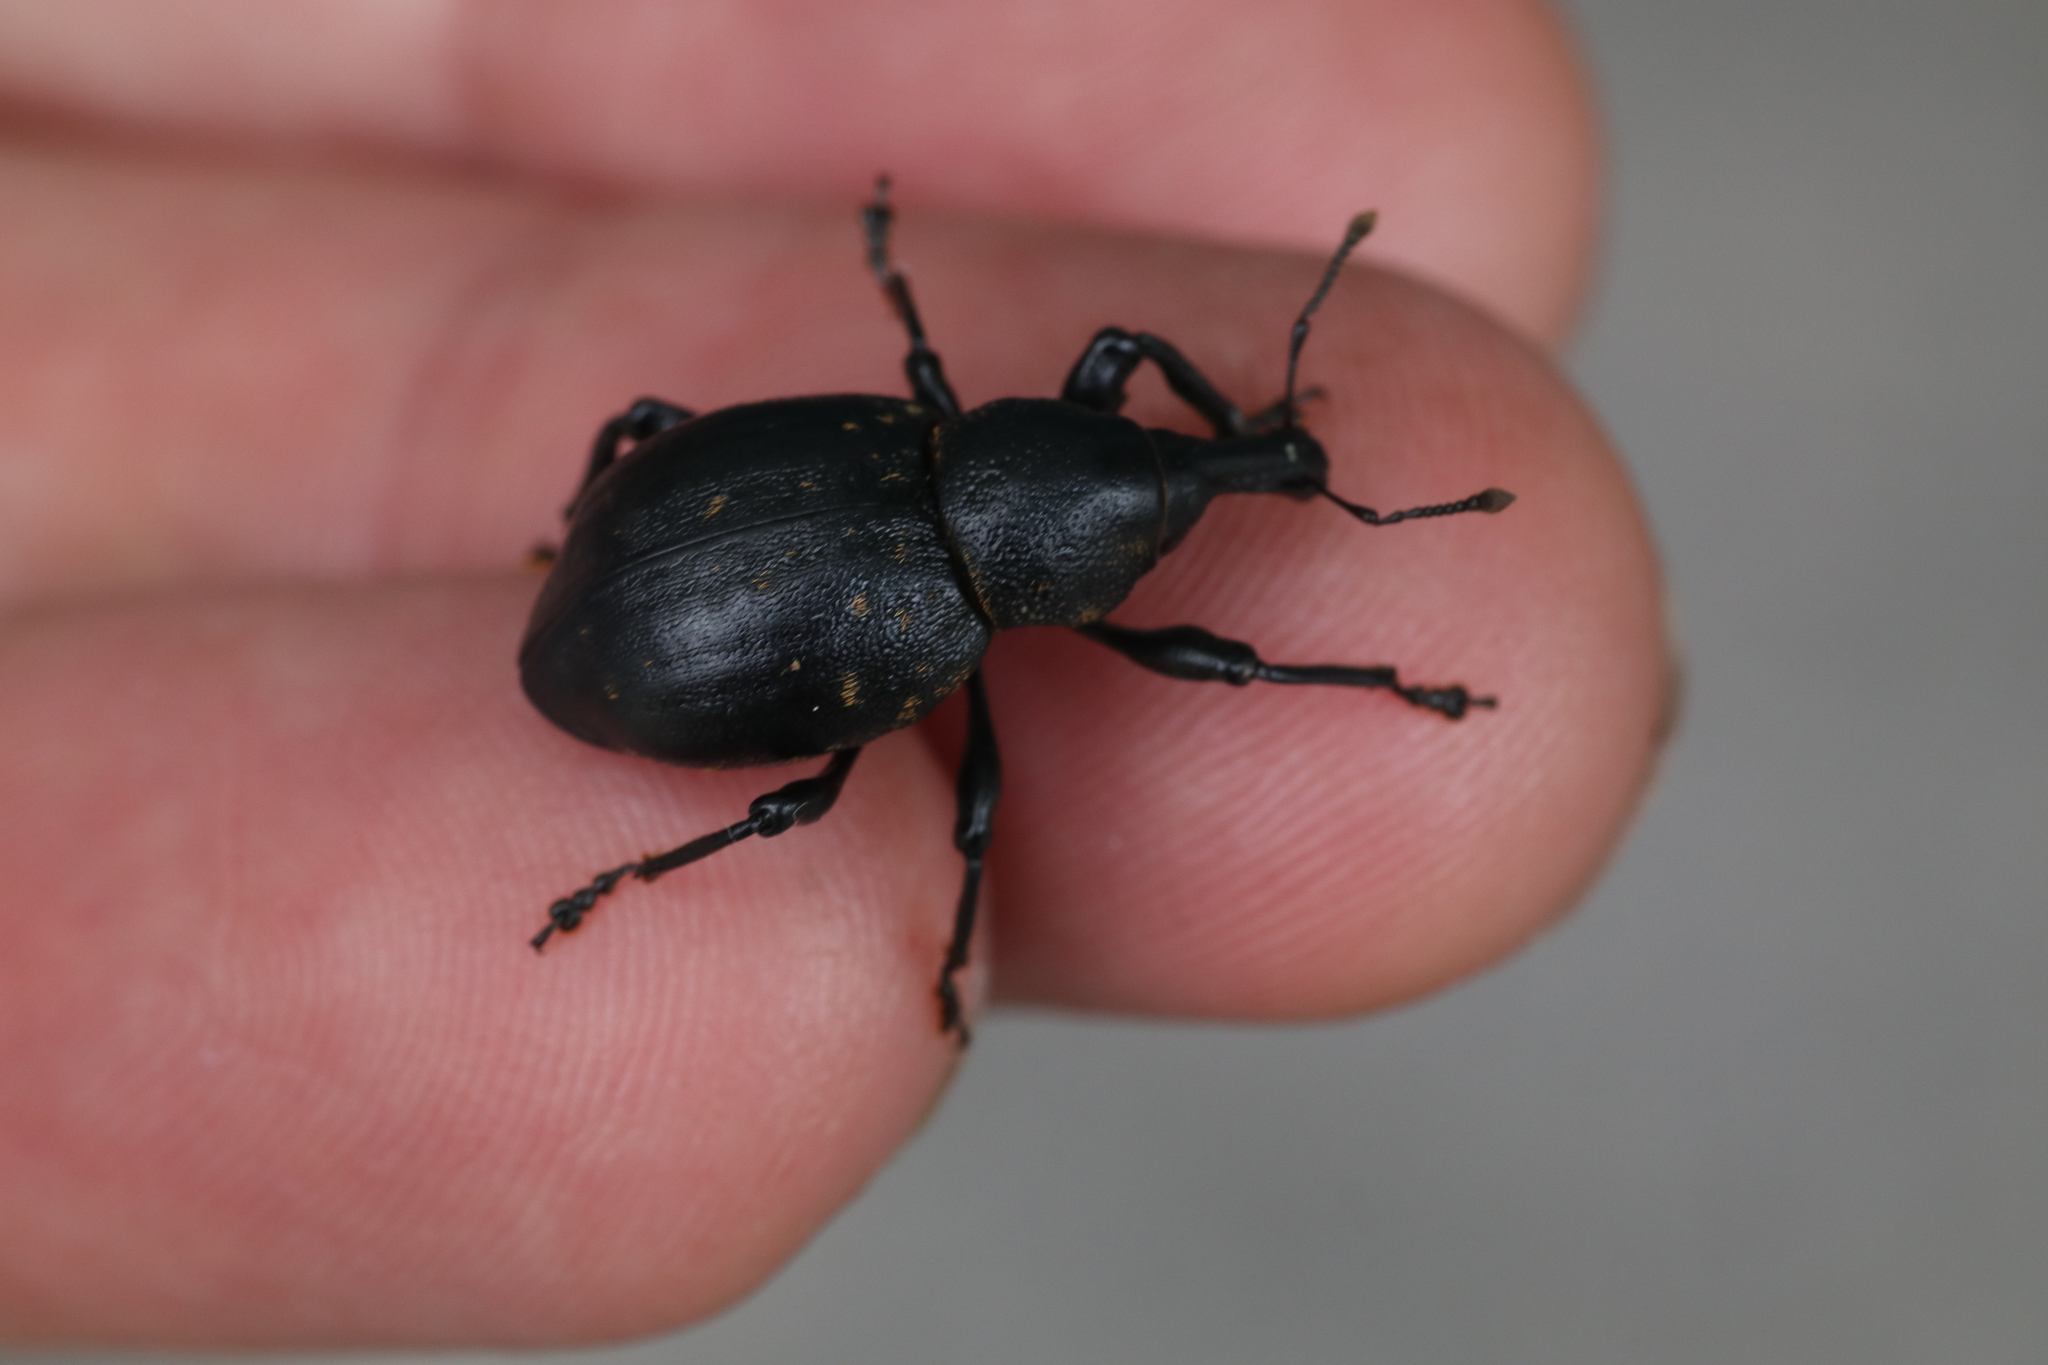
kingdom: Animalia
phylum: Arthropoda
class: Insecta
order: Coleoptera
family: Curculionidae
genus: Liparus
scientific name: Liparus germanus
